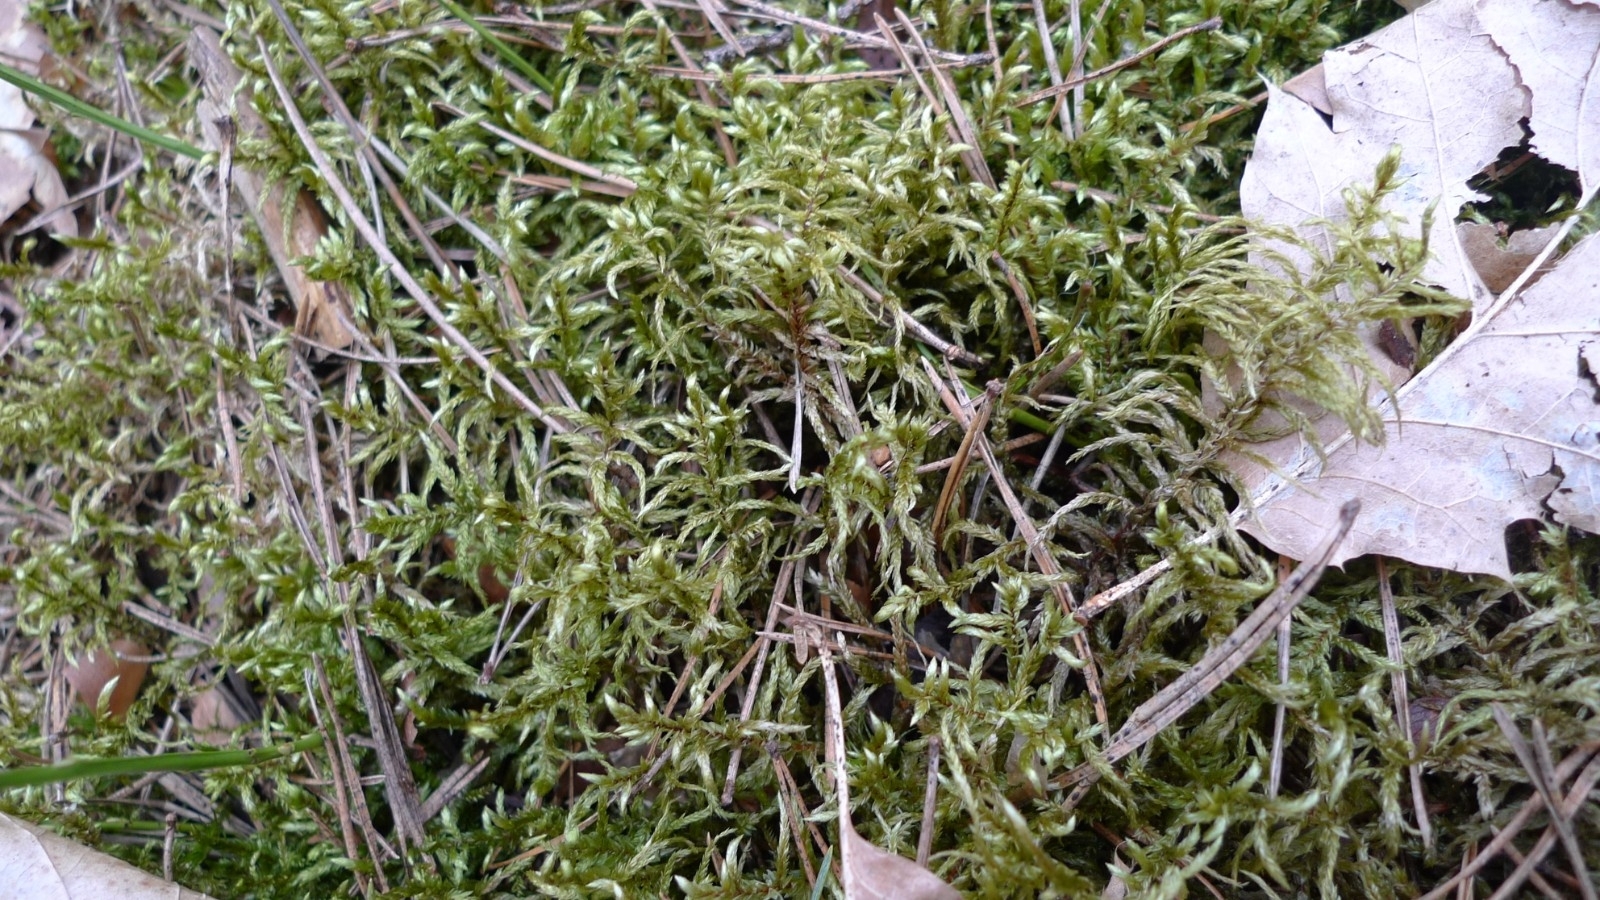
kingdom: Plantae
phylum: Bryophyta
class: Bryopsida
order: Hypnales
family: Hylocomiaceae
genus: Pleurozium
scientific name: Pleurozium schreberi
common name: Red-stemmed feather moss
